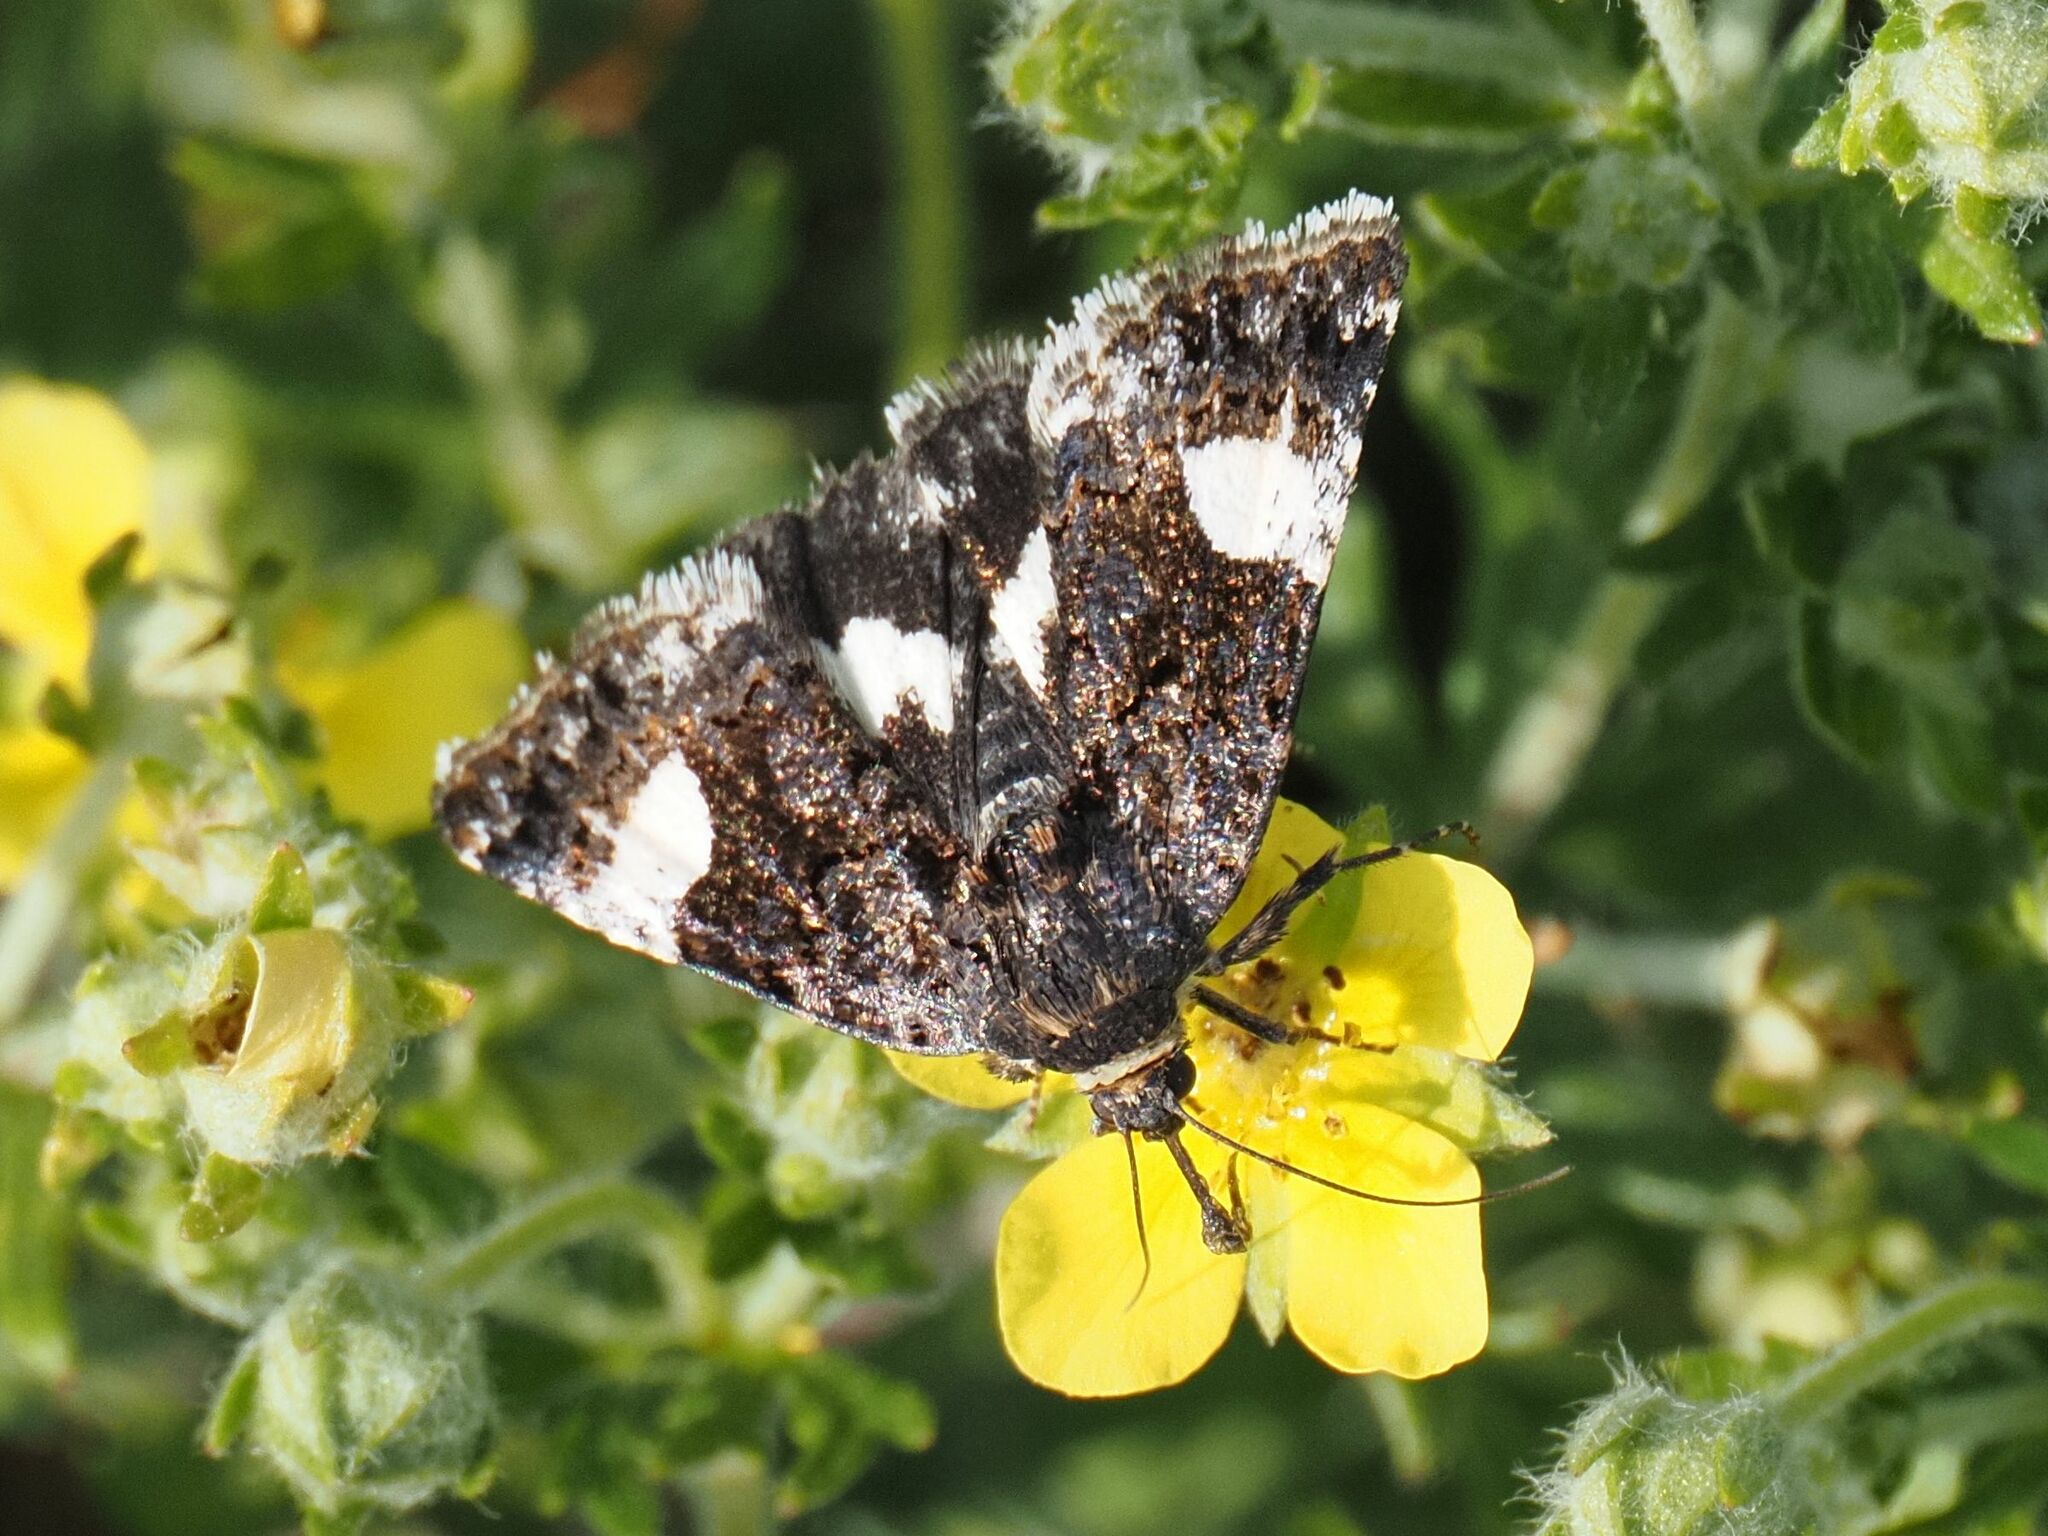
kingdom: Animalia
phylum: Arthropoda
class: Insecta
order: Lepidoptera
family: Erebidae
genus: Tyta
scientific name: Tyta luctuosa
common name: Four-spotted
